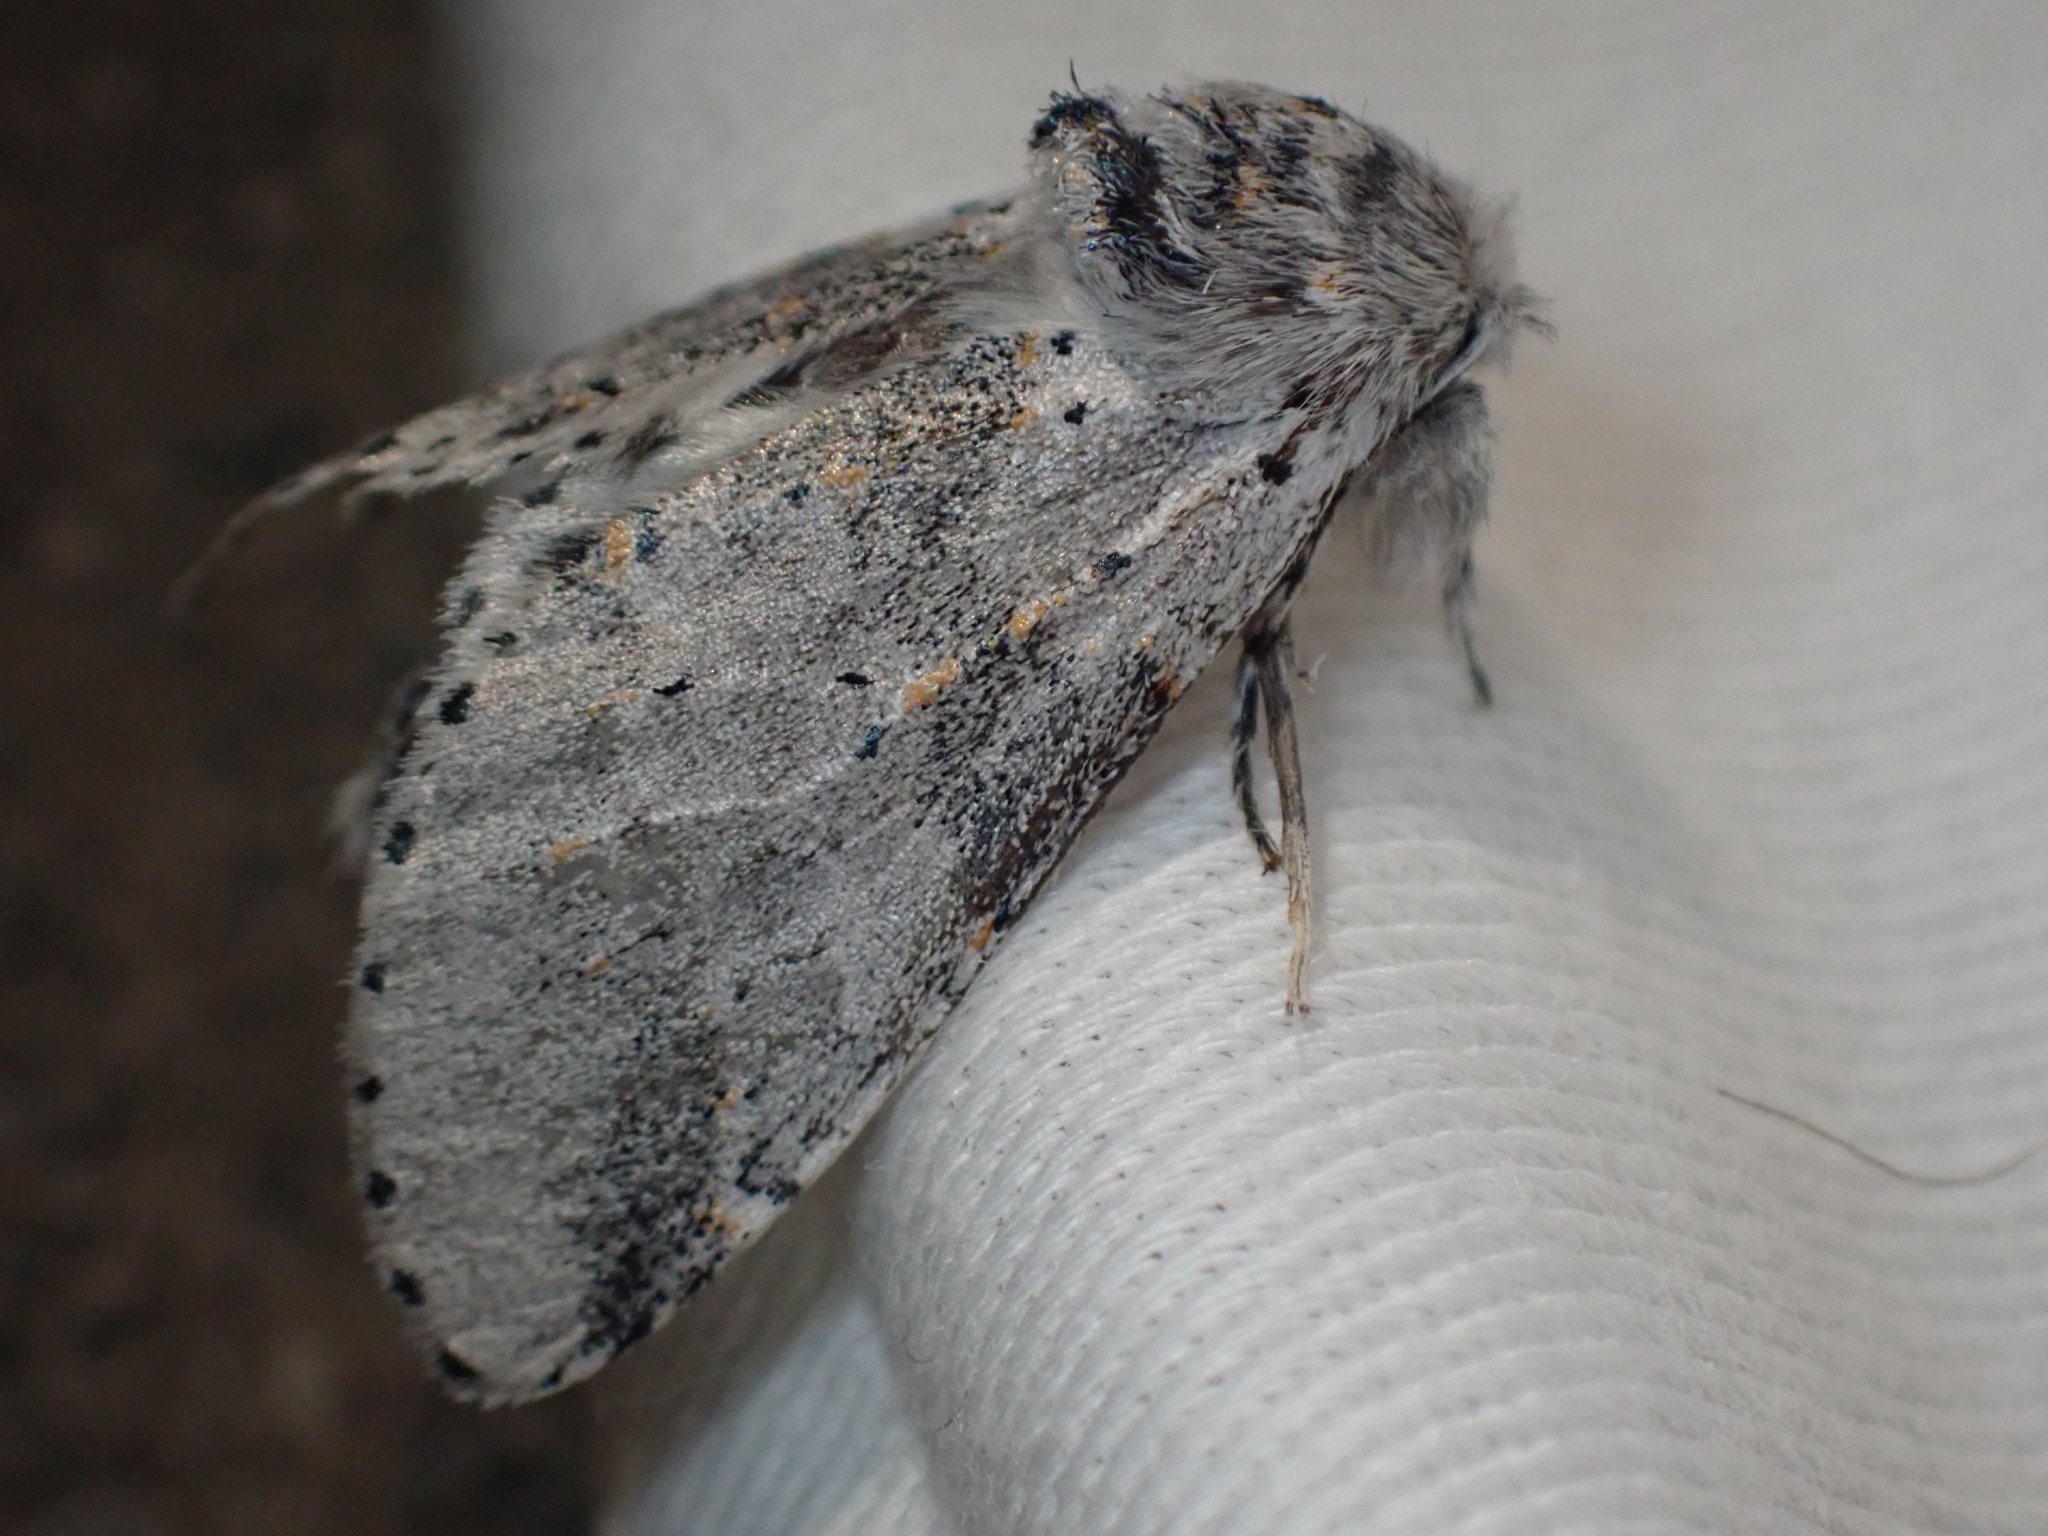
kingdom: Animalia
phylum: Arthropoda
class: Insecta
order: Lepidoptera
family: Notodontidae
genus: Furcula
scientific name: Furcula cinerea
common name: Gray furcula
